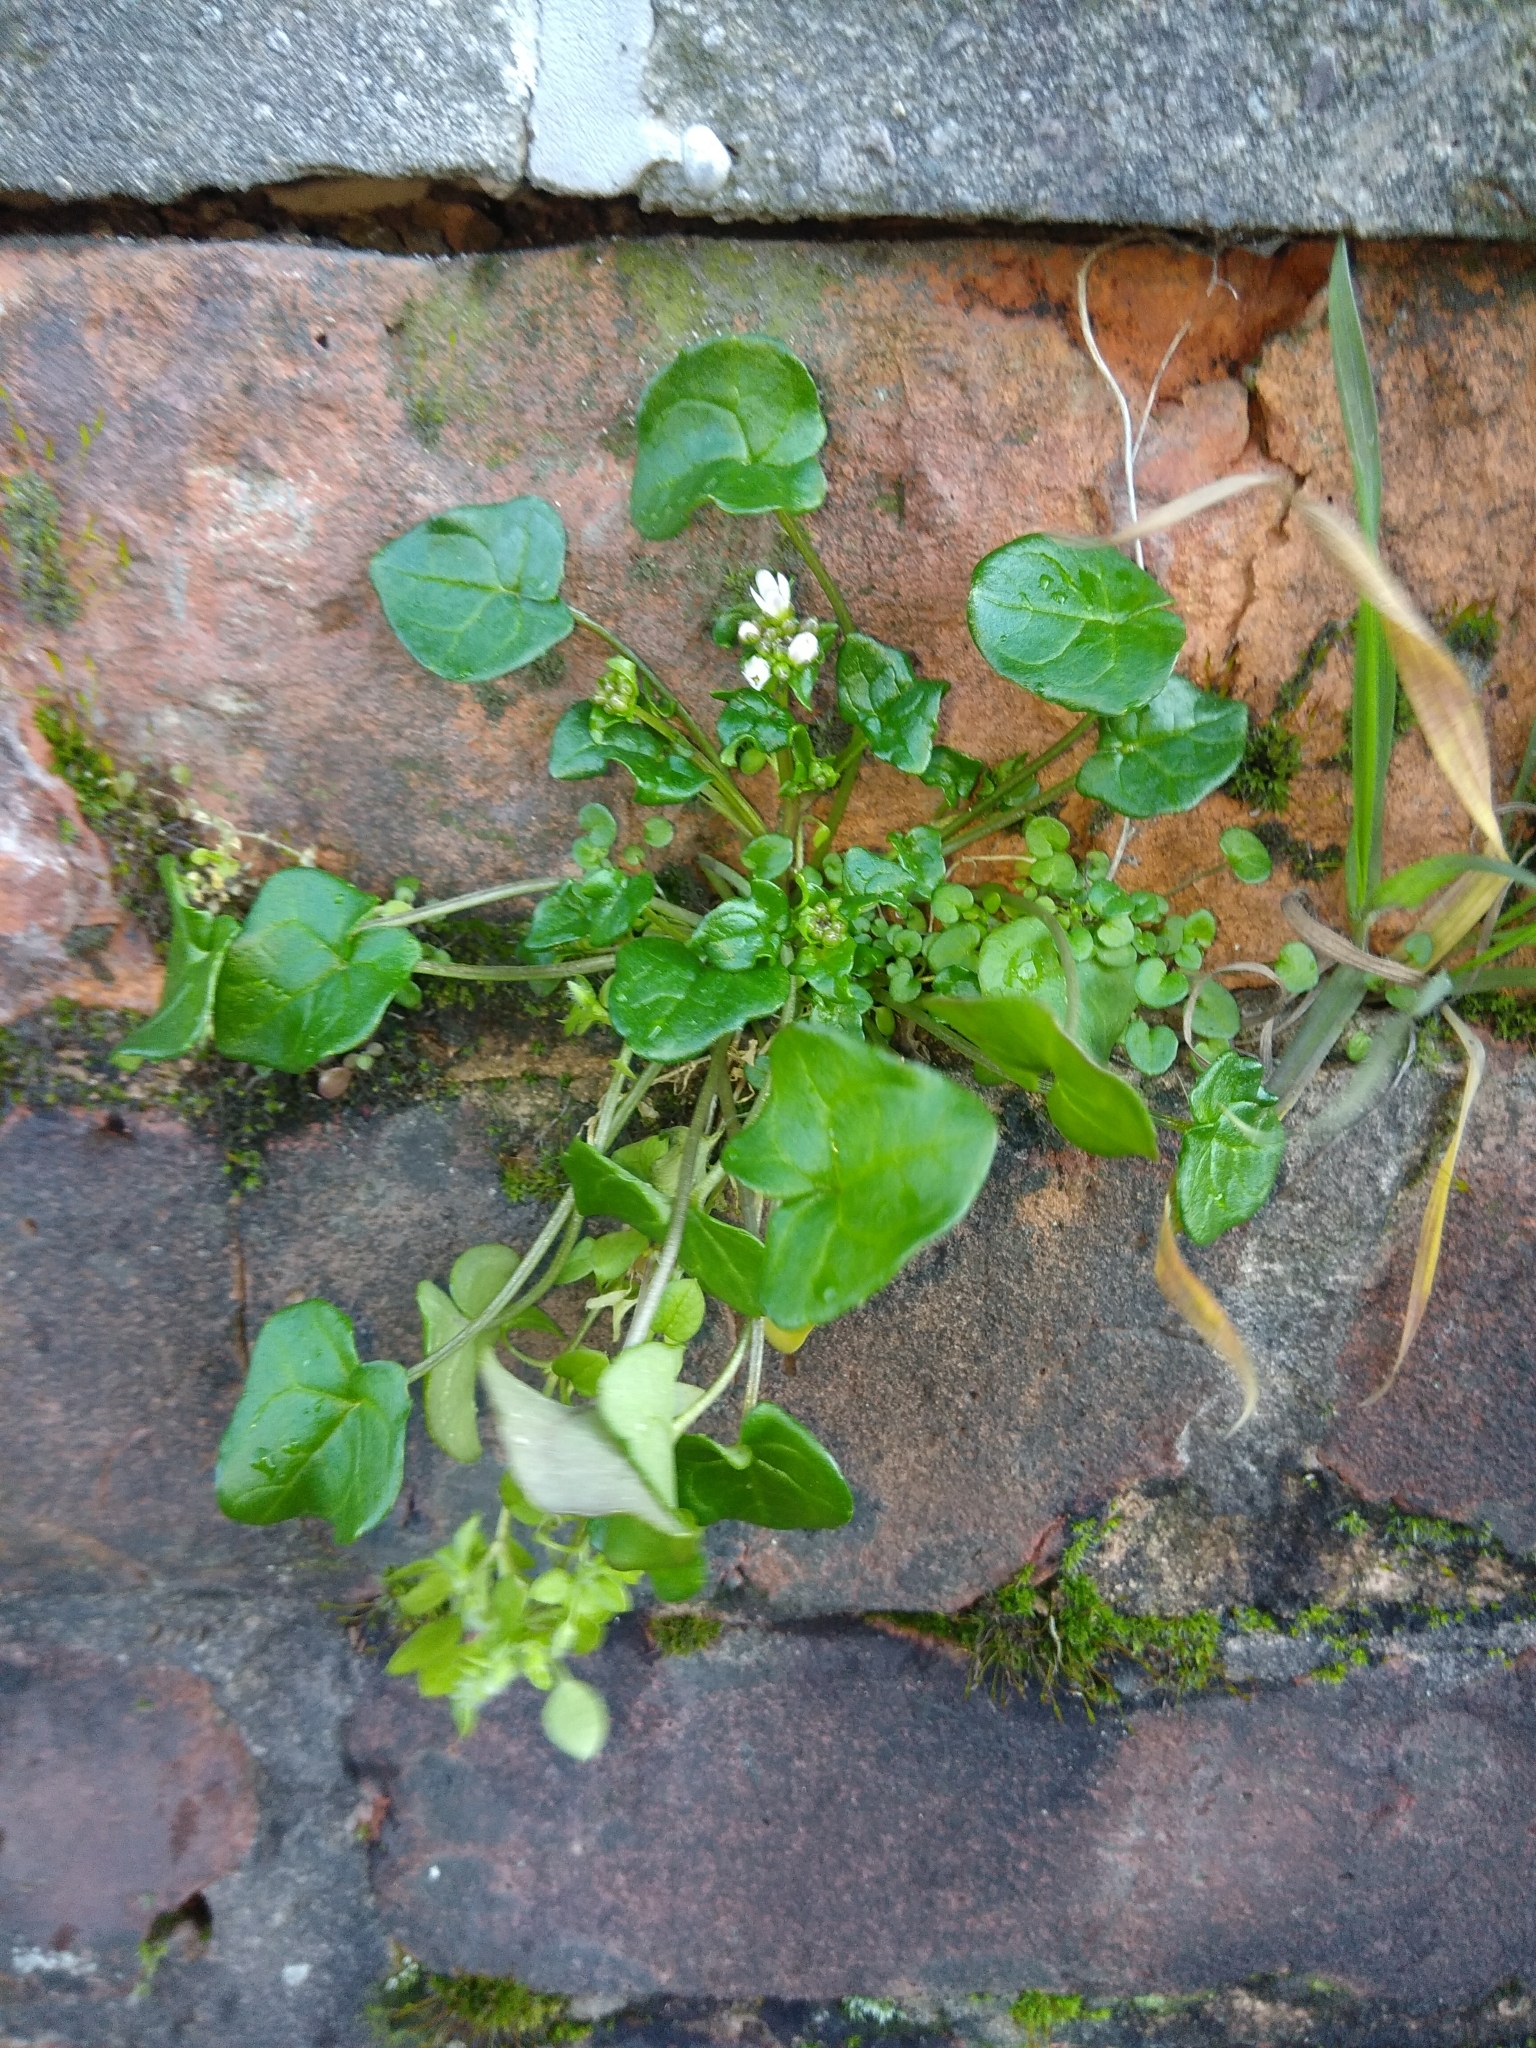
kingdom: Plantae
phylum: Tracheophyta
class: Magnoliopsida
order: Brassicales
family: Brassicaceae
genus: Cochlearia
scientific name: Cochlearia danica
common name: Early scurvygrass
